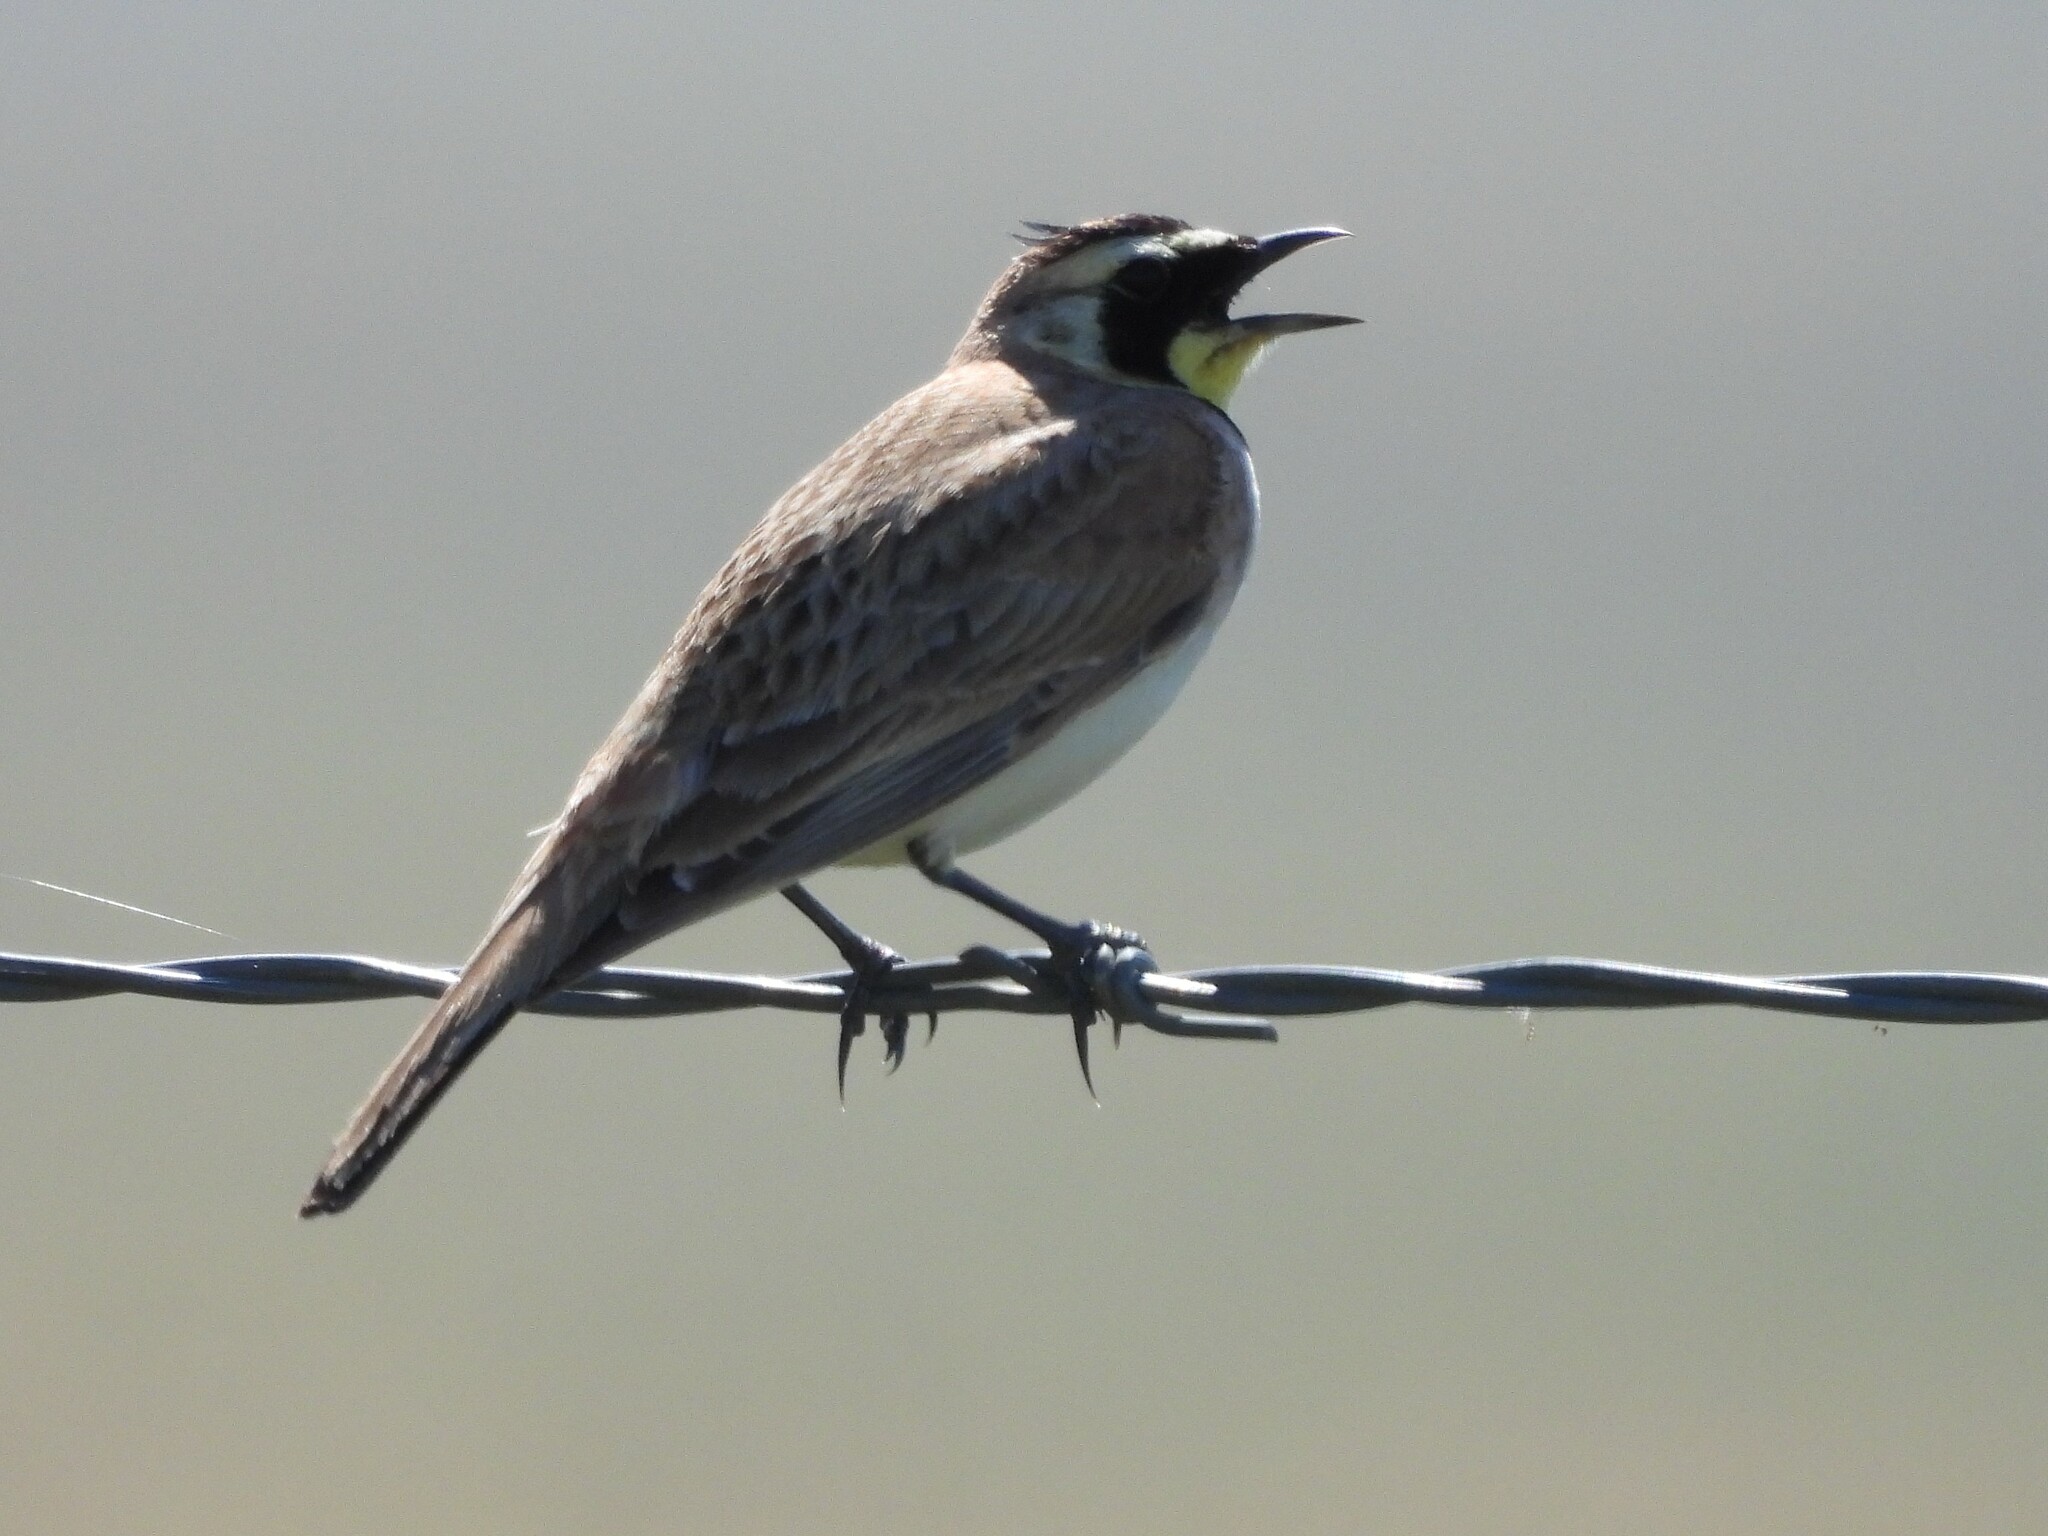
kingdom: Animalia
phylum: Chordata
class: Aves
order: Passeriformes
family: Alaudidae
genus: Eremophila
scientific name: Eremophila alpestris
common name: Horned lark
